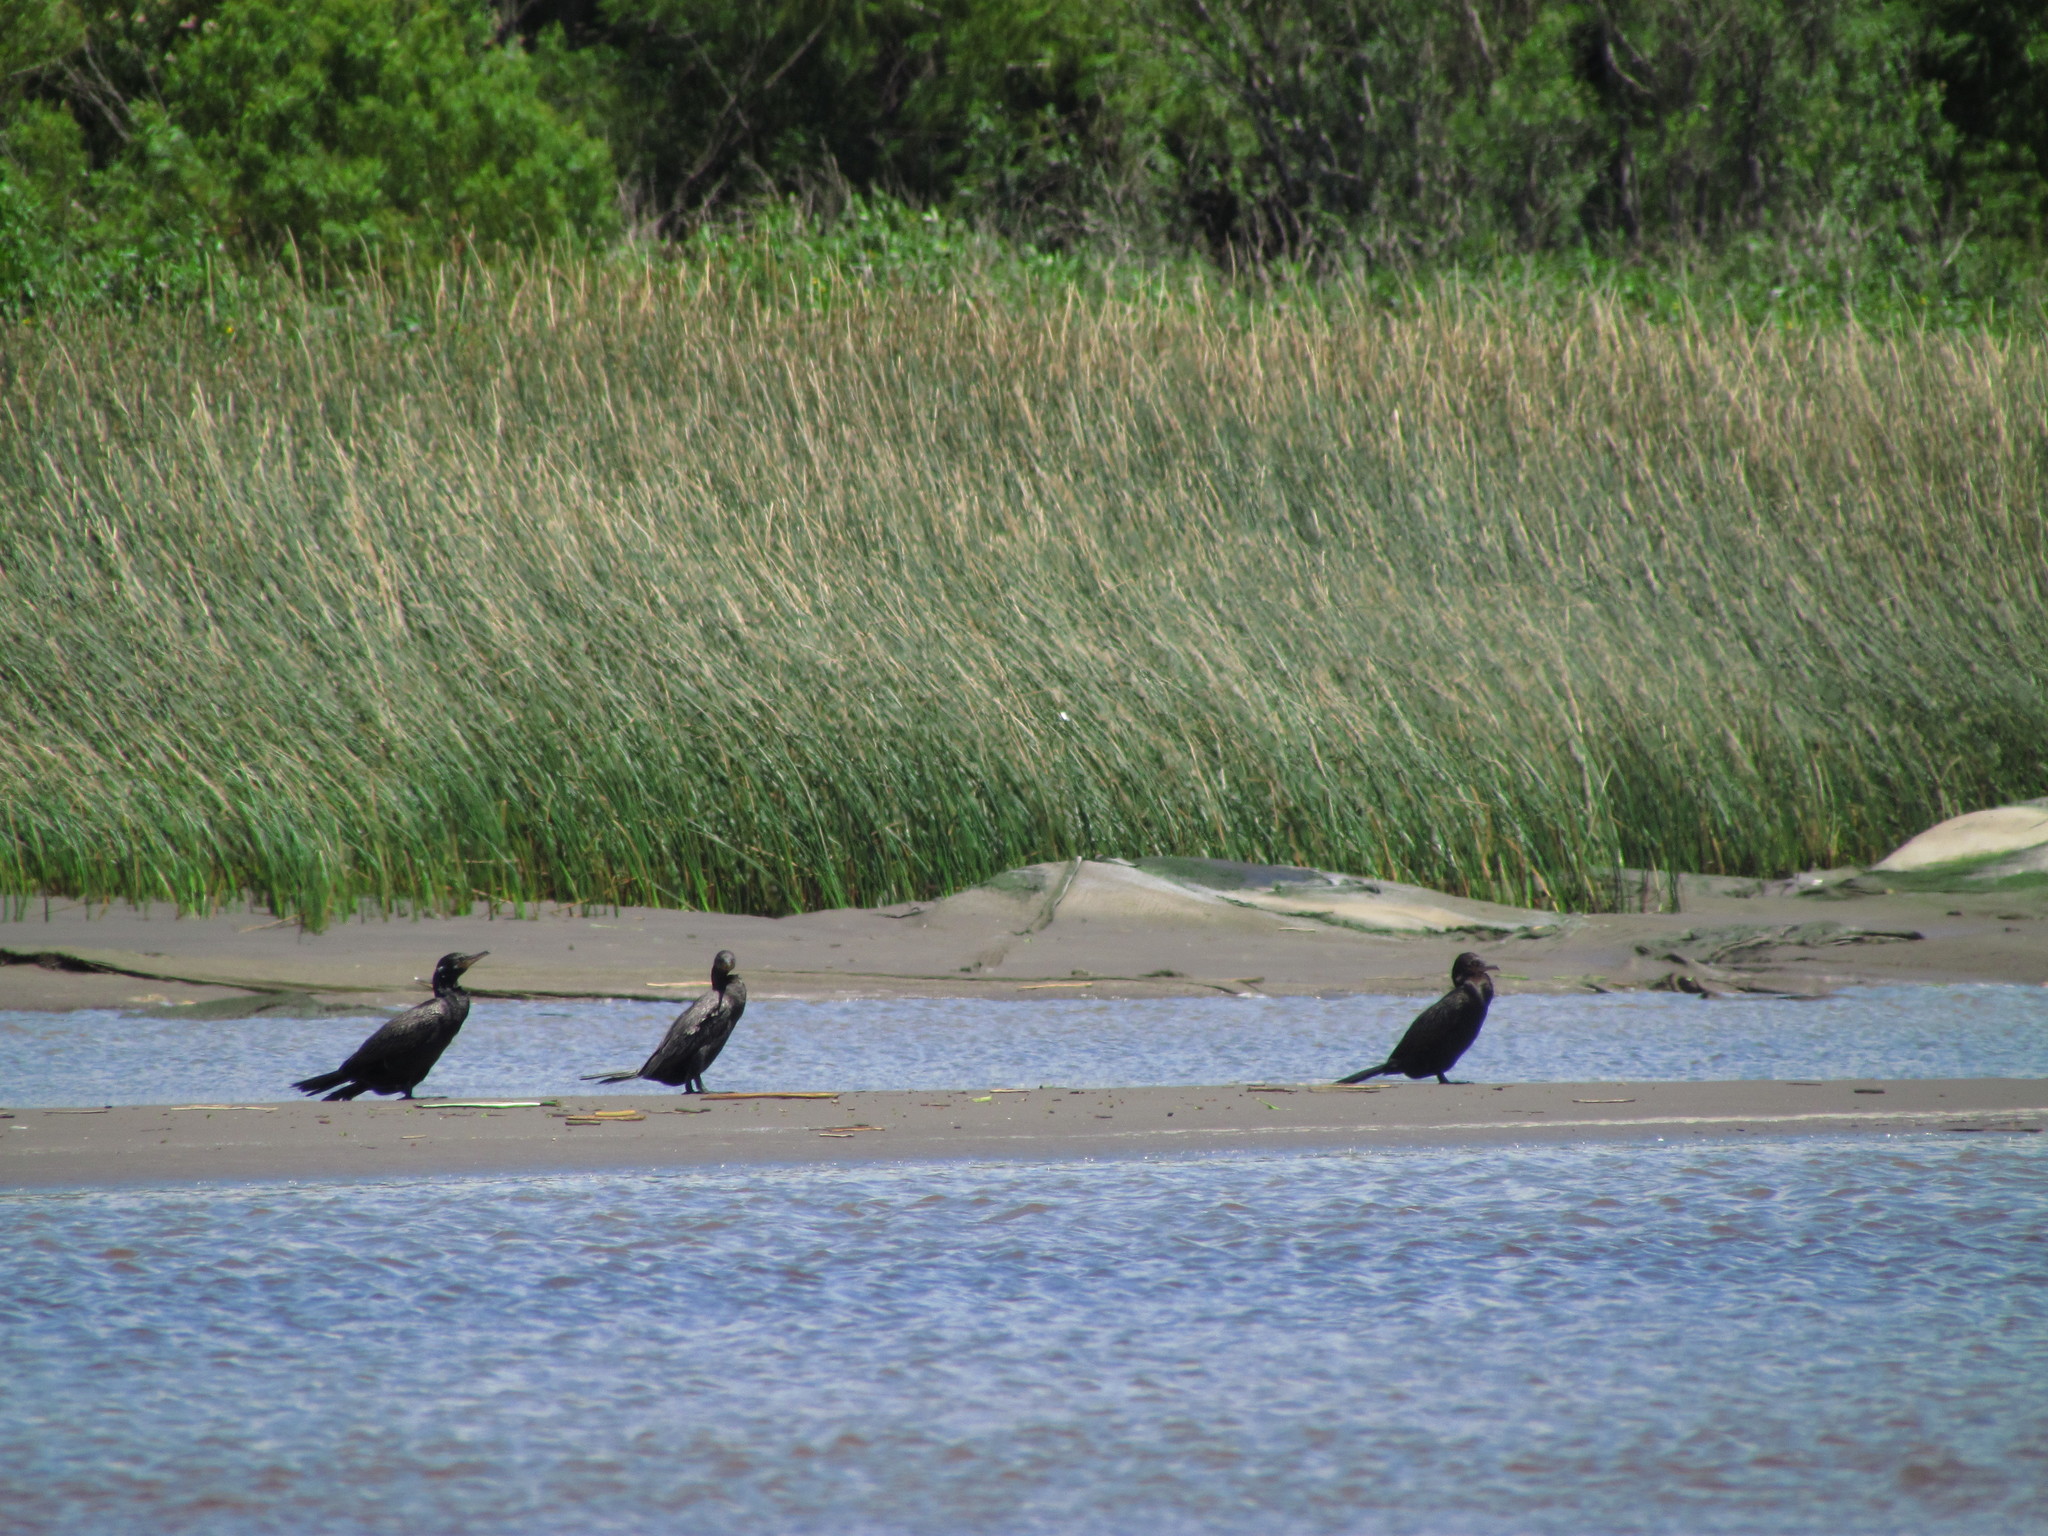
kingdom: Animalia
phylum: Chordata
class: Aves
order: Suliformes
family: Phalacrocoracidae
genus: Phalacrocorax
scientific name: Phalacrocorax brasilianus
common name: Neotropic cormorant
